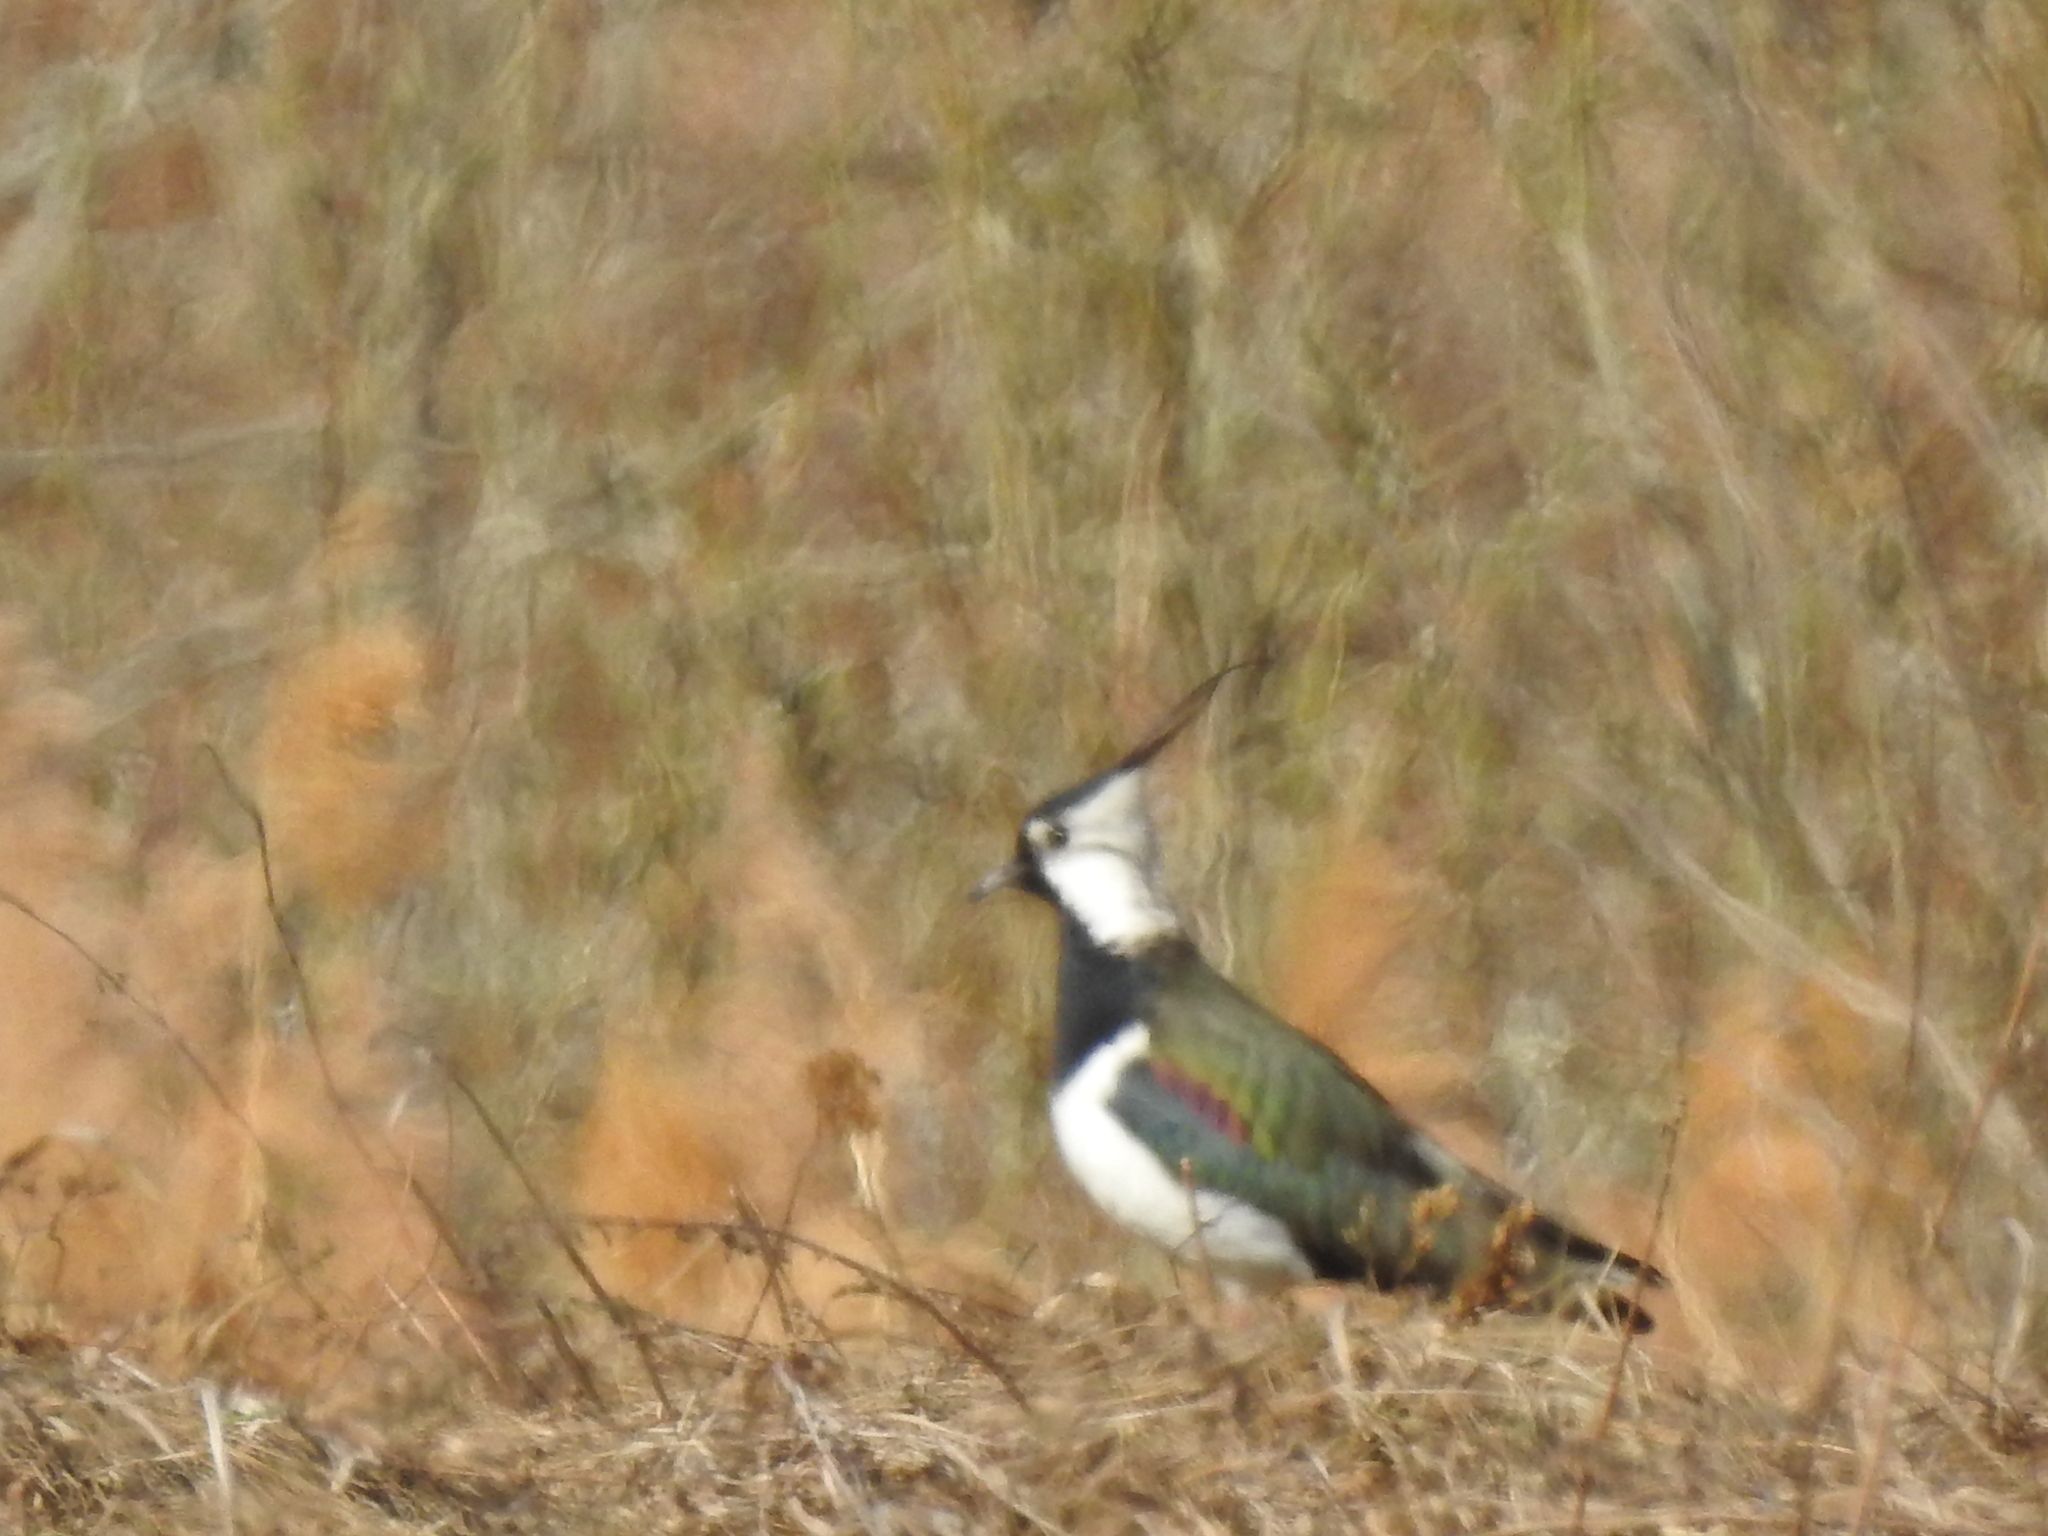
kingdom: Animalia
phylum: Chordata
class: Aves
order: Charadriiformes
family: Charadriidae
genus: Vanellus
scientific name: Vanellus vanellus
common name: Northern lapwing
